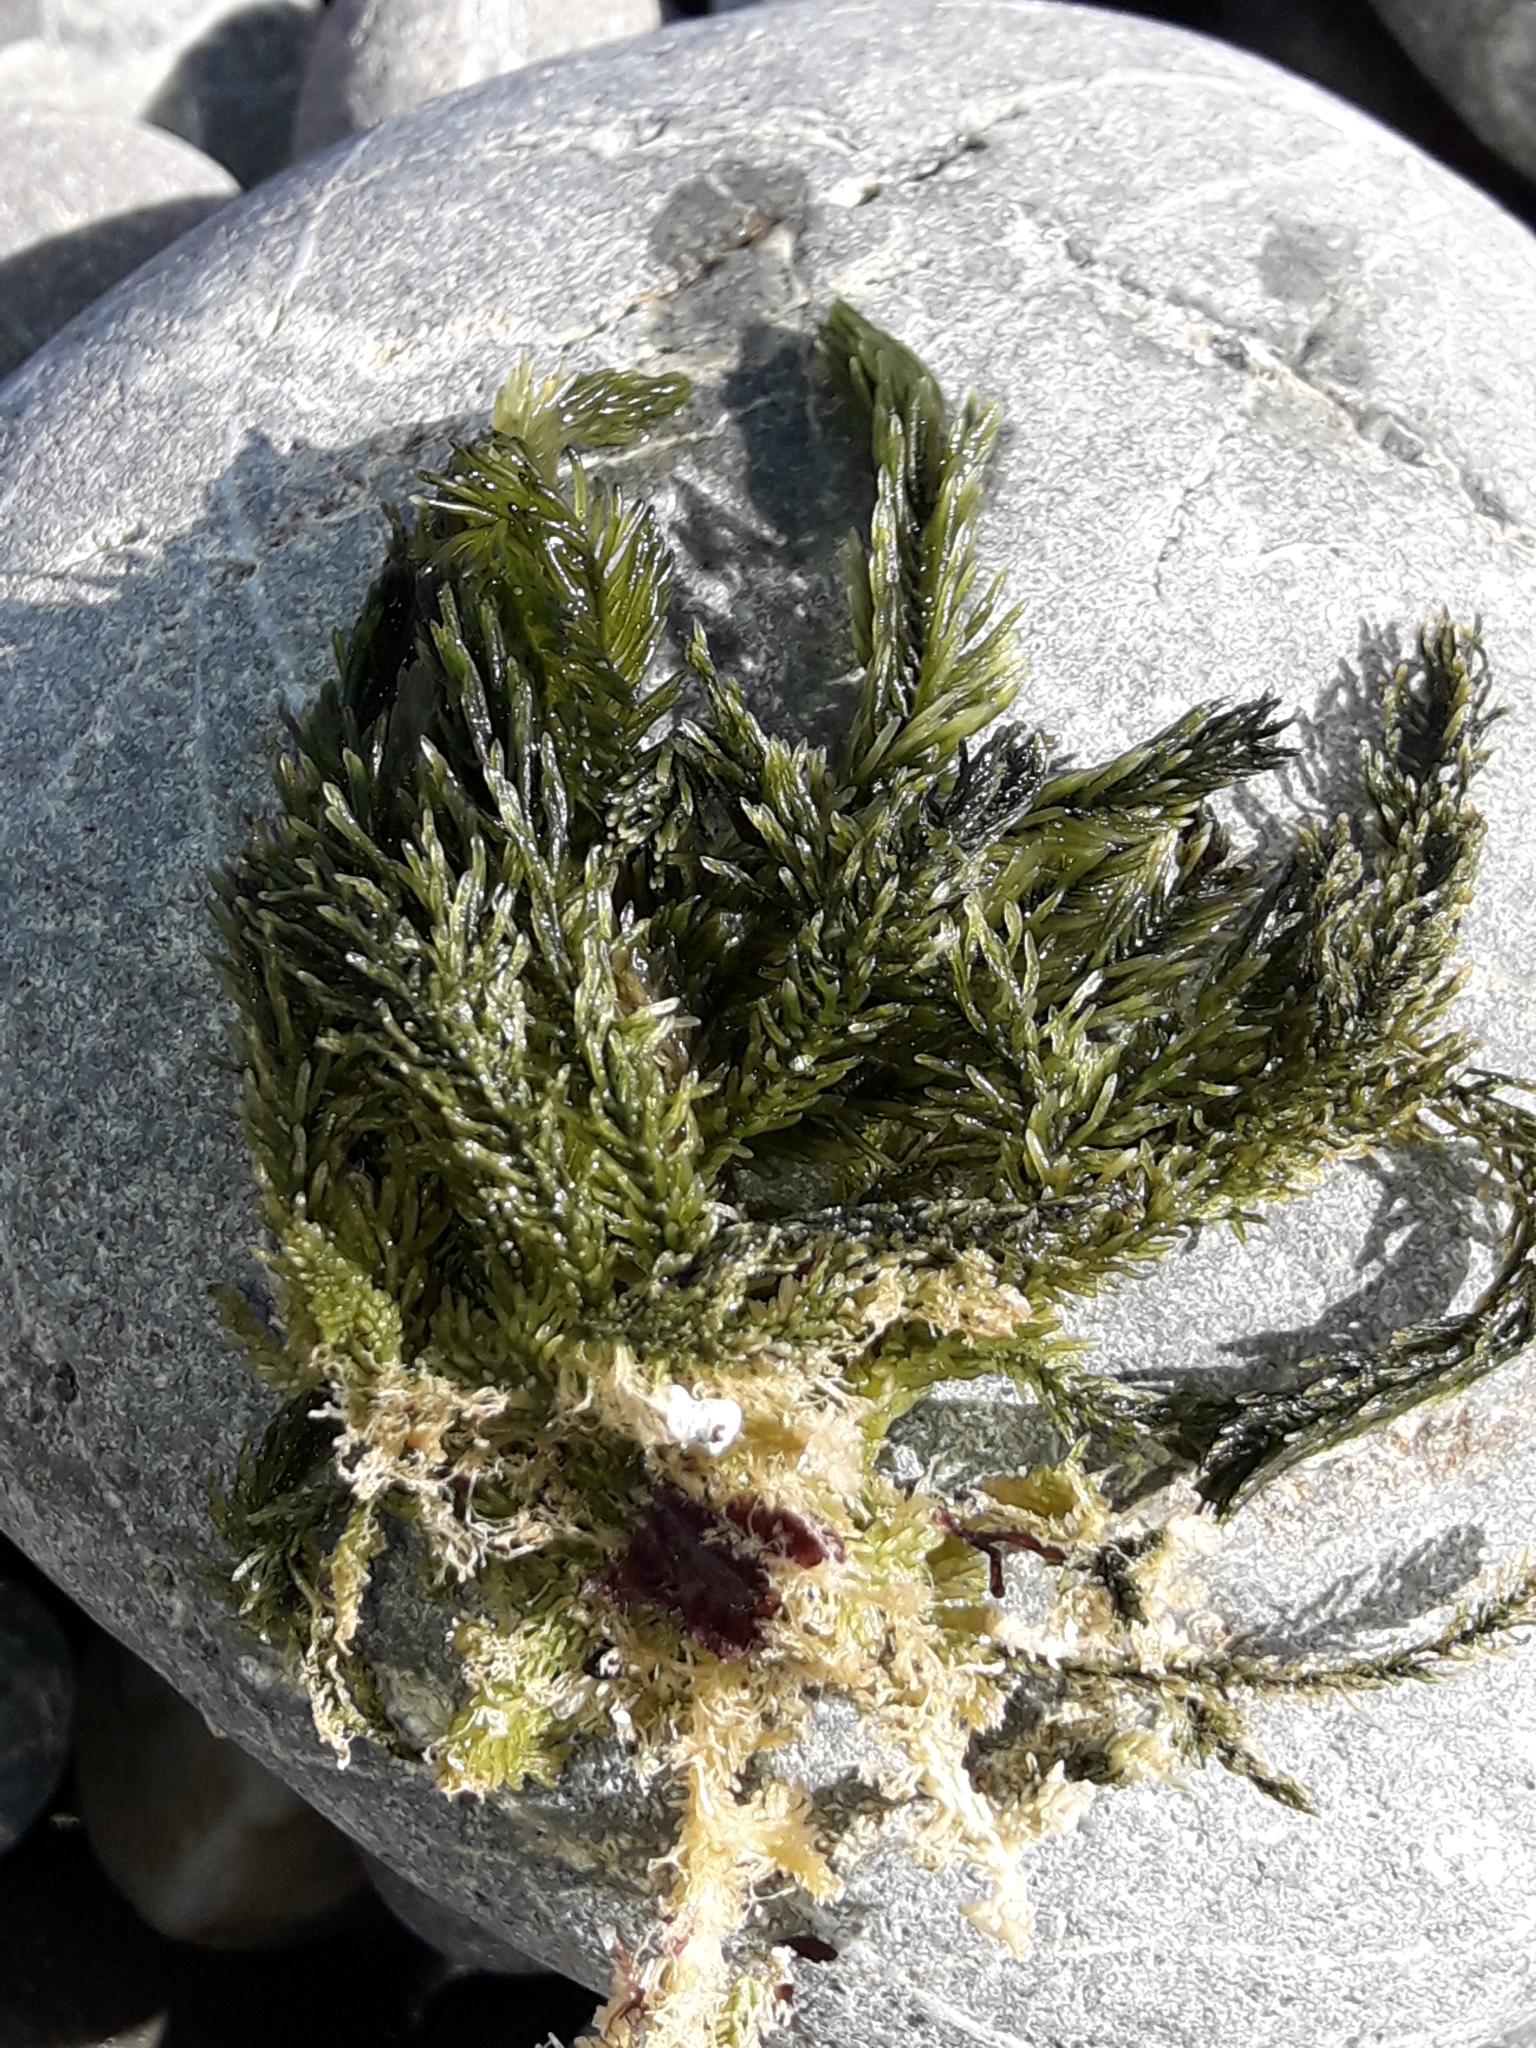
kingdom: Plantae
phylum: Chlorophyta
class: Ulvophyceae
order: Bryopsidales
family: Caulerpaceae
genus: Caulerpa
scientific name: Caulerpa brownii
